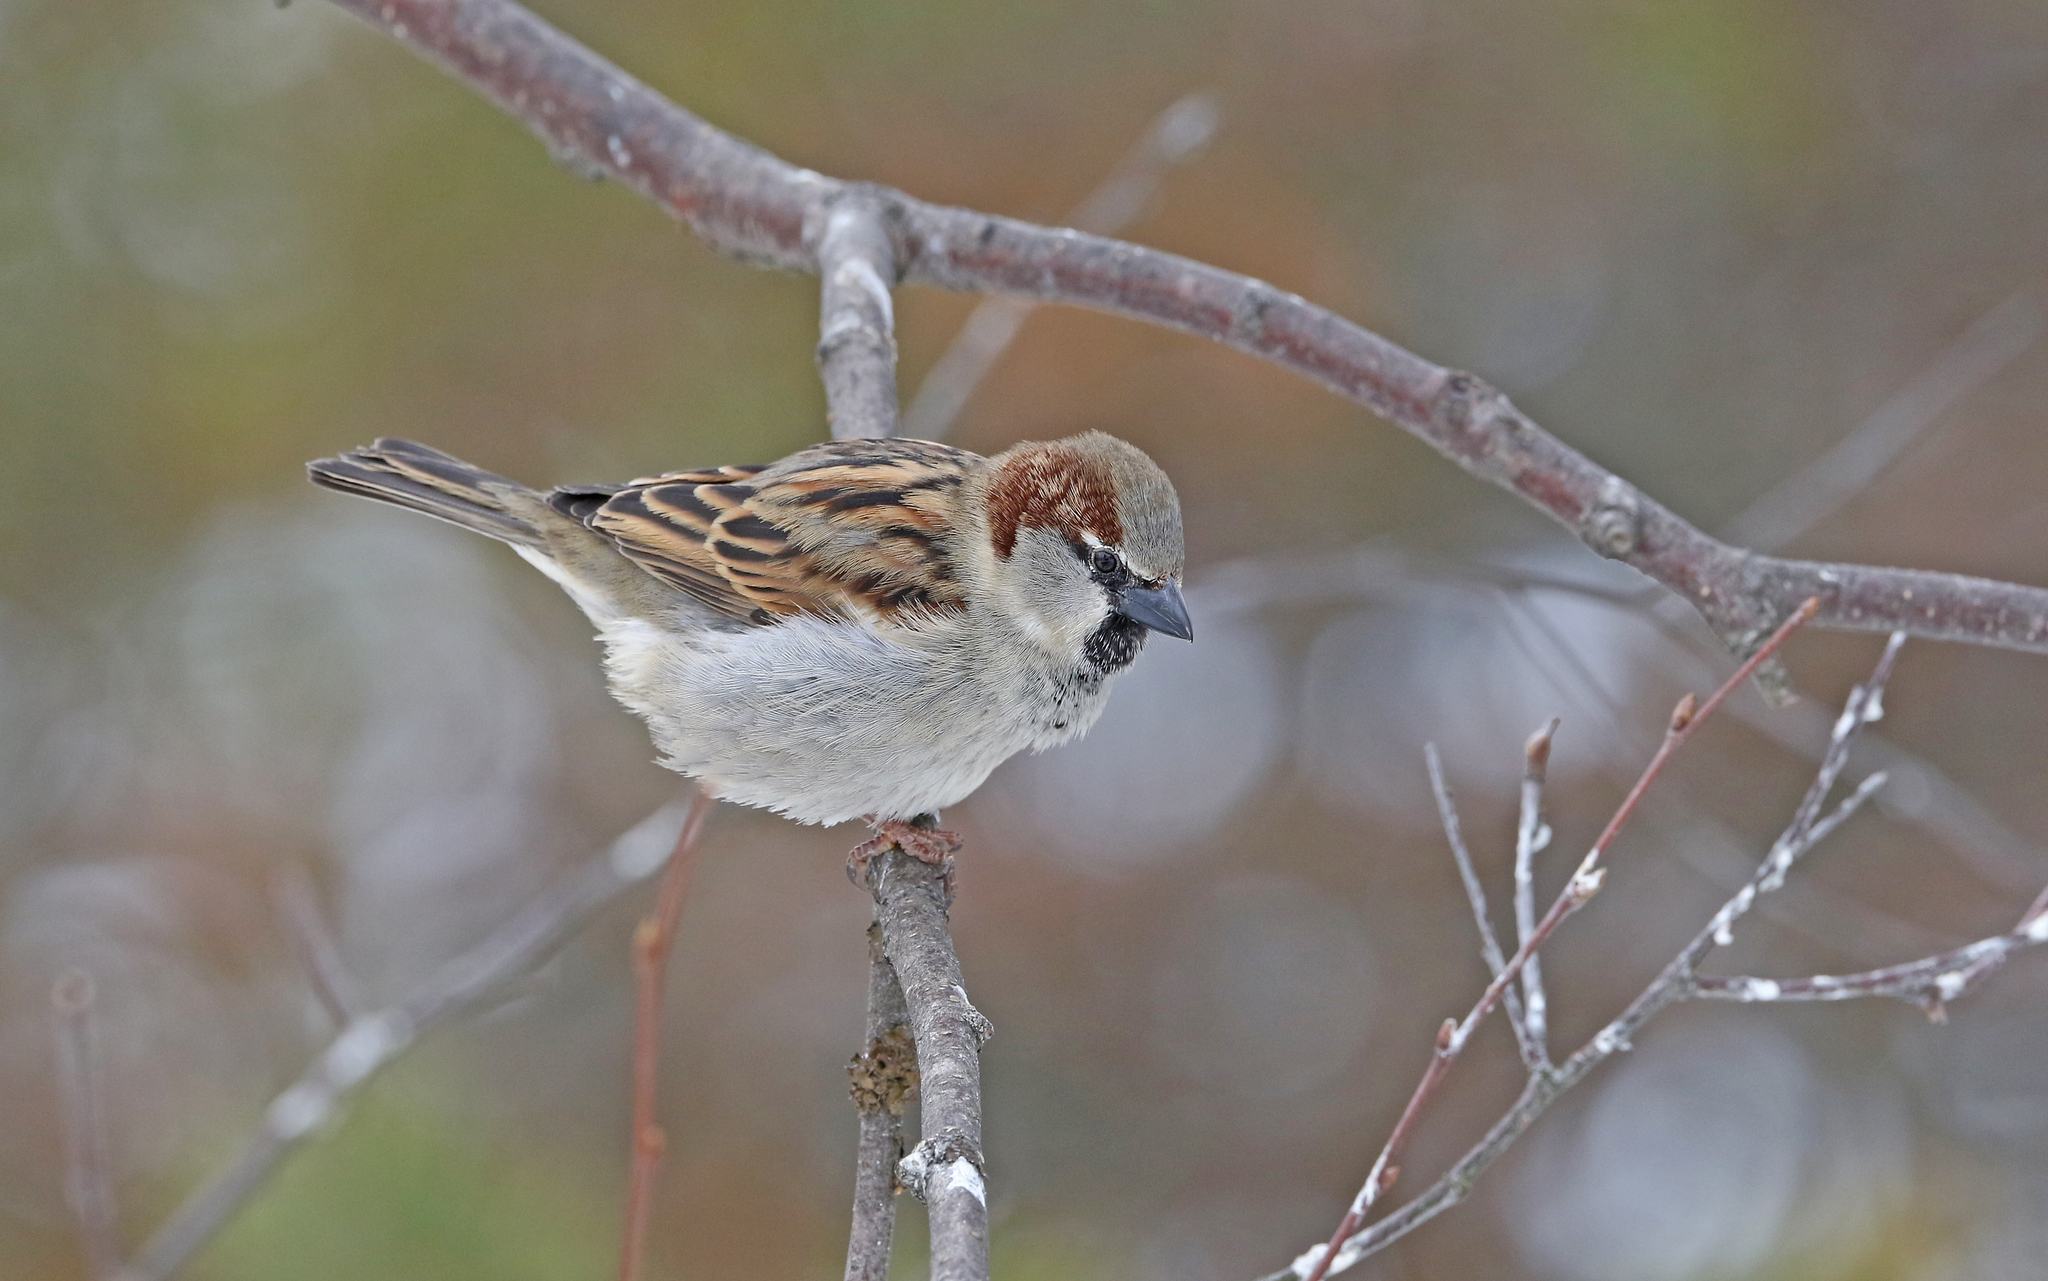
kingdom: Animalia
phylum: Chordata
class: Aves
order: Passeriformes
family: Passeridae
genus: Passer
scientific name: Passer domesticus
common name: House sparrow
